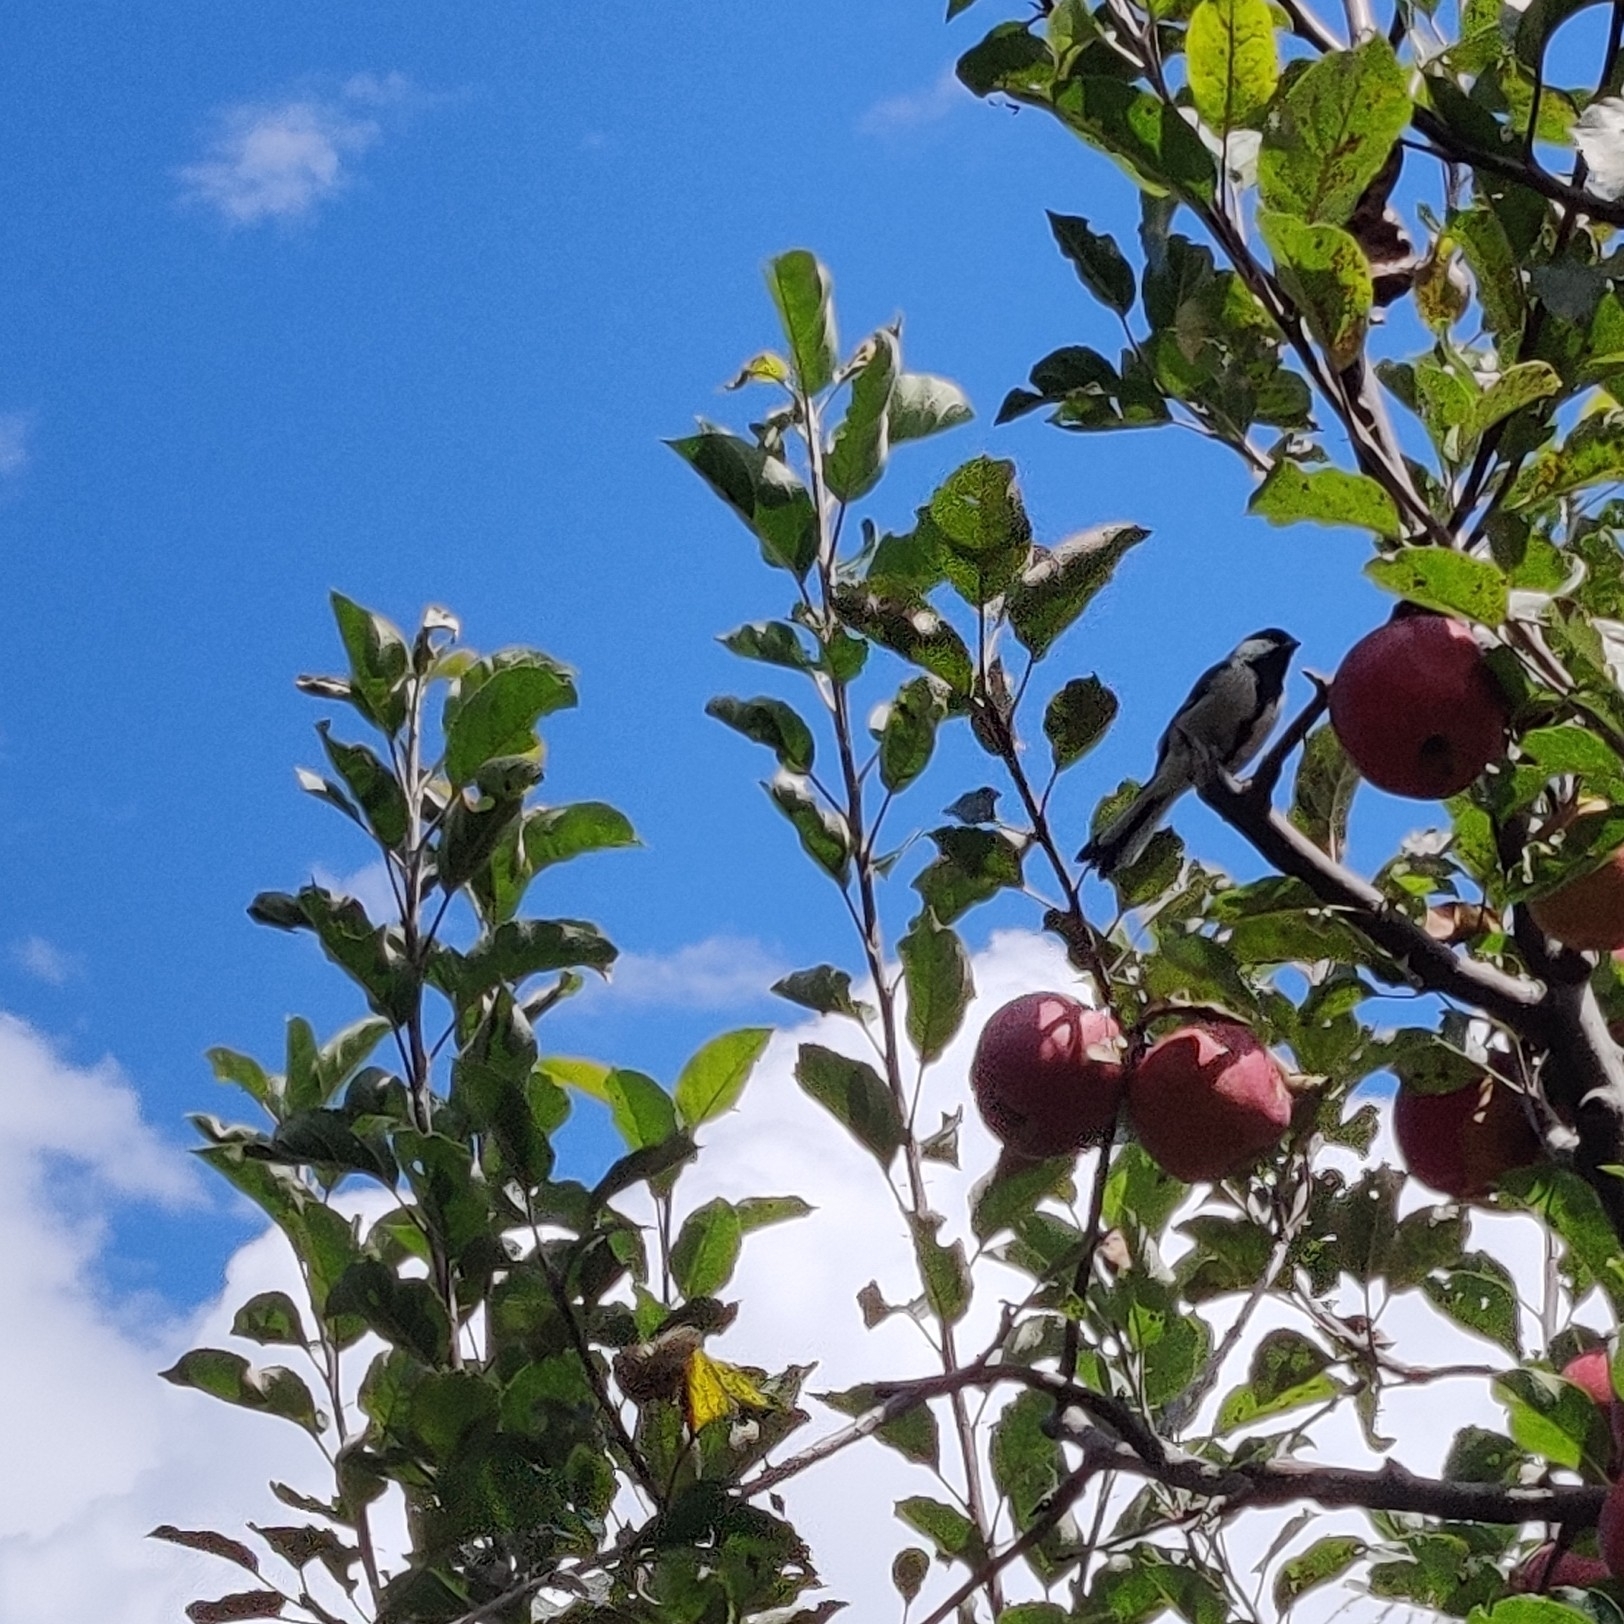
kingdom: Animalia
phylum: Chordata
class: Aves
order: Passeriformes
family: Paridae
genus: Parus
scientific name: Parus cinereus
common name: Cinereous tit
